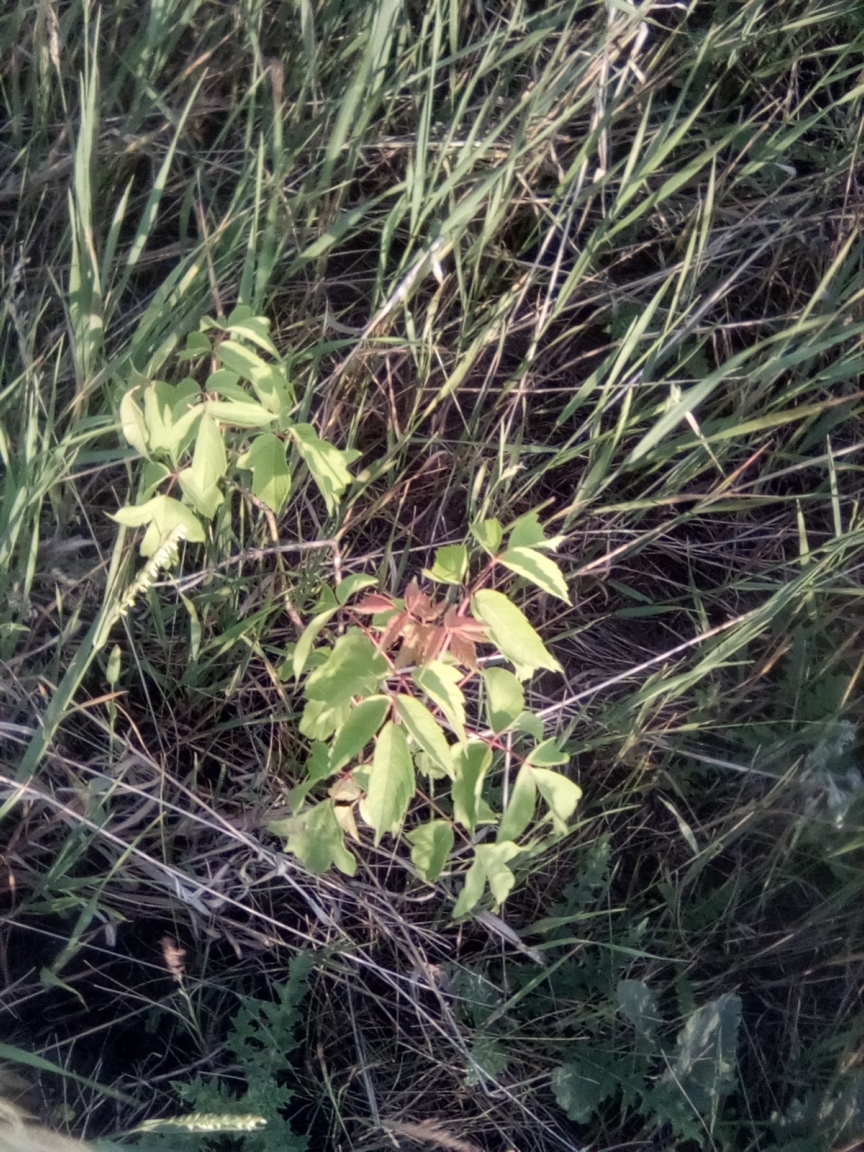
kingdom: Plantae
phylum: Tracheophyta
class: Magnoliopsida
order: Sapindales
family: Sapindaceae
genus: Acer
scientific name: Acer negundo
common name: Ashleaf maple
